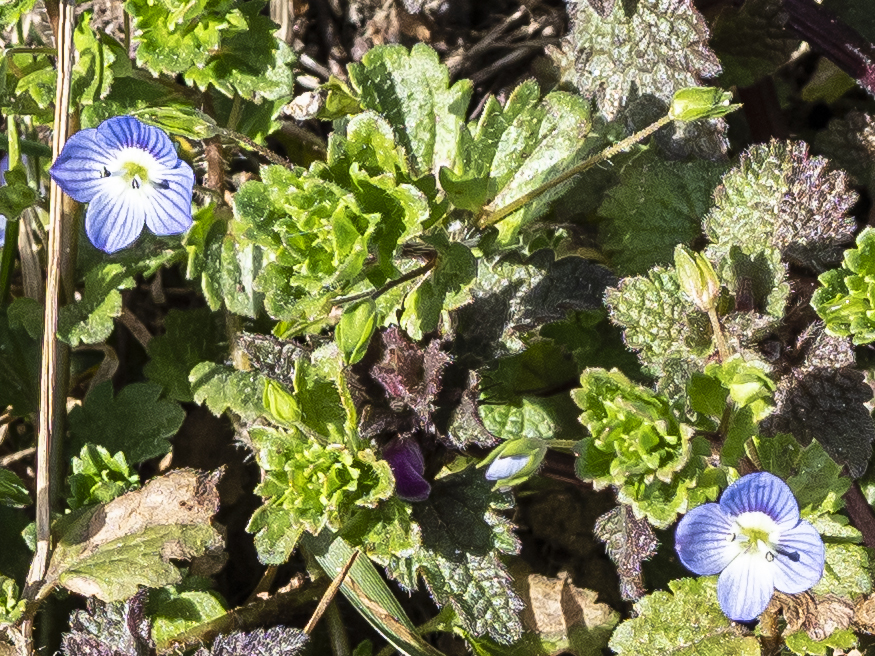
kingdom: Plantae
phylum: Tracheophyta
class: Magnoliopsida
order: Lamiales
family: Plantaginaceae
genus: Veronica
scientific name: Veronica persica
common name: Common field-speedwell
